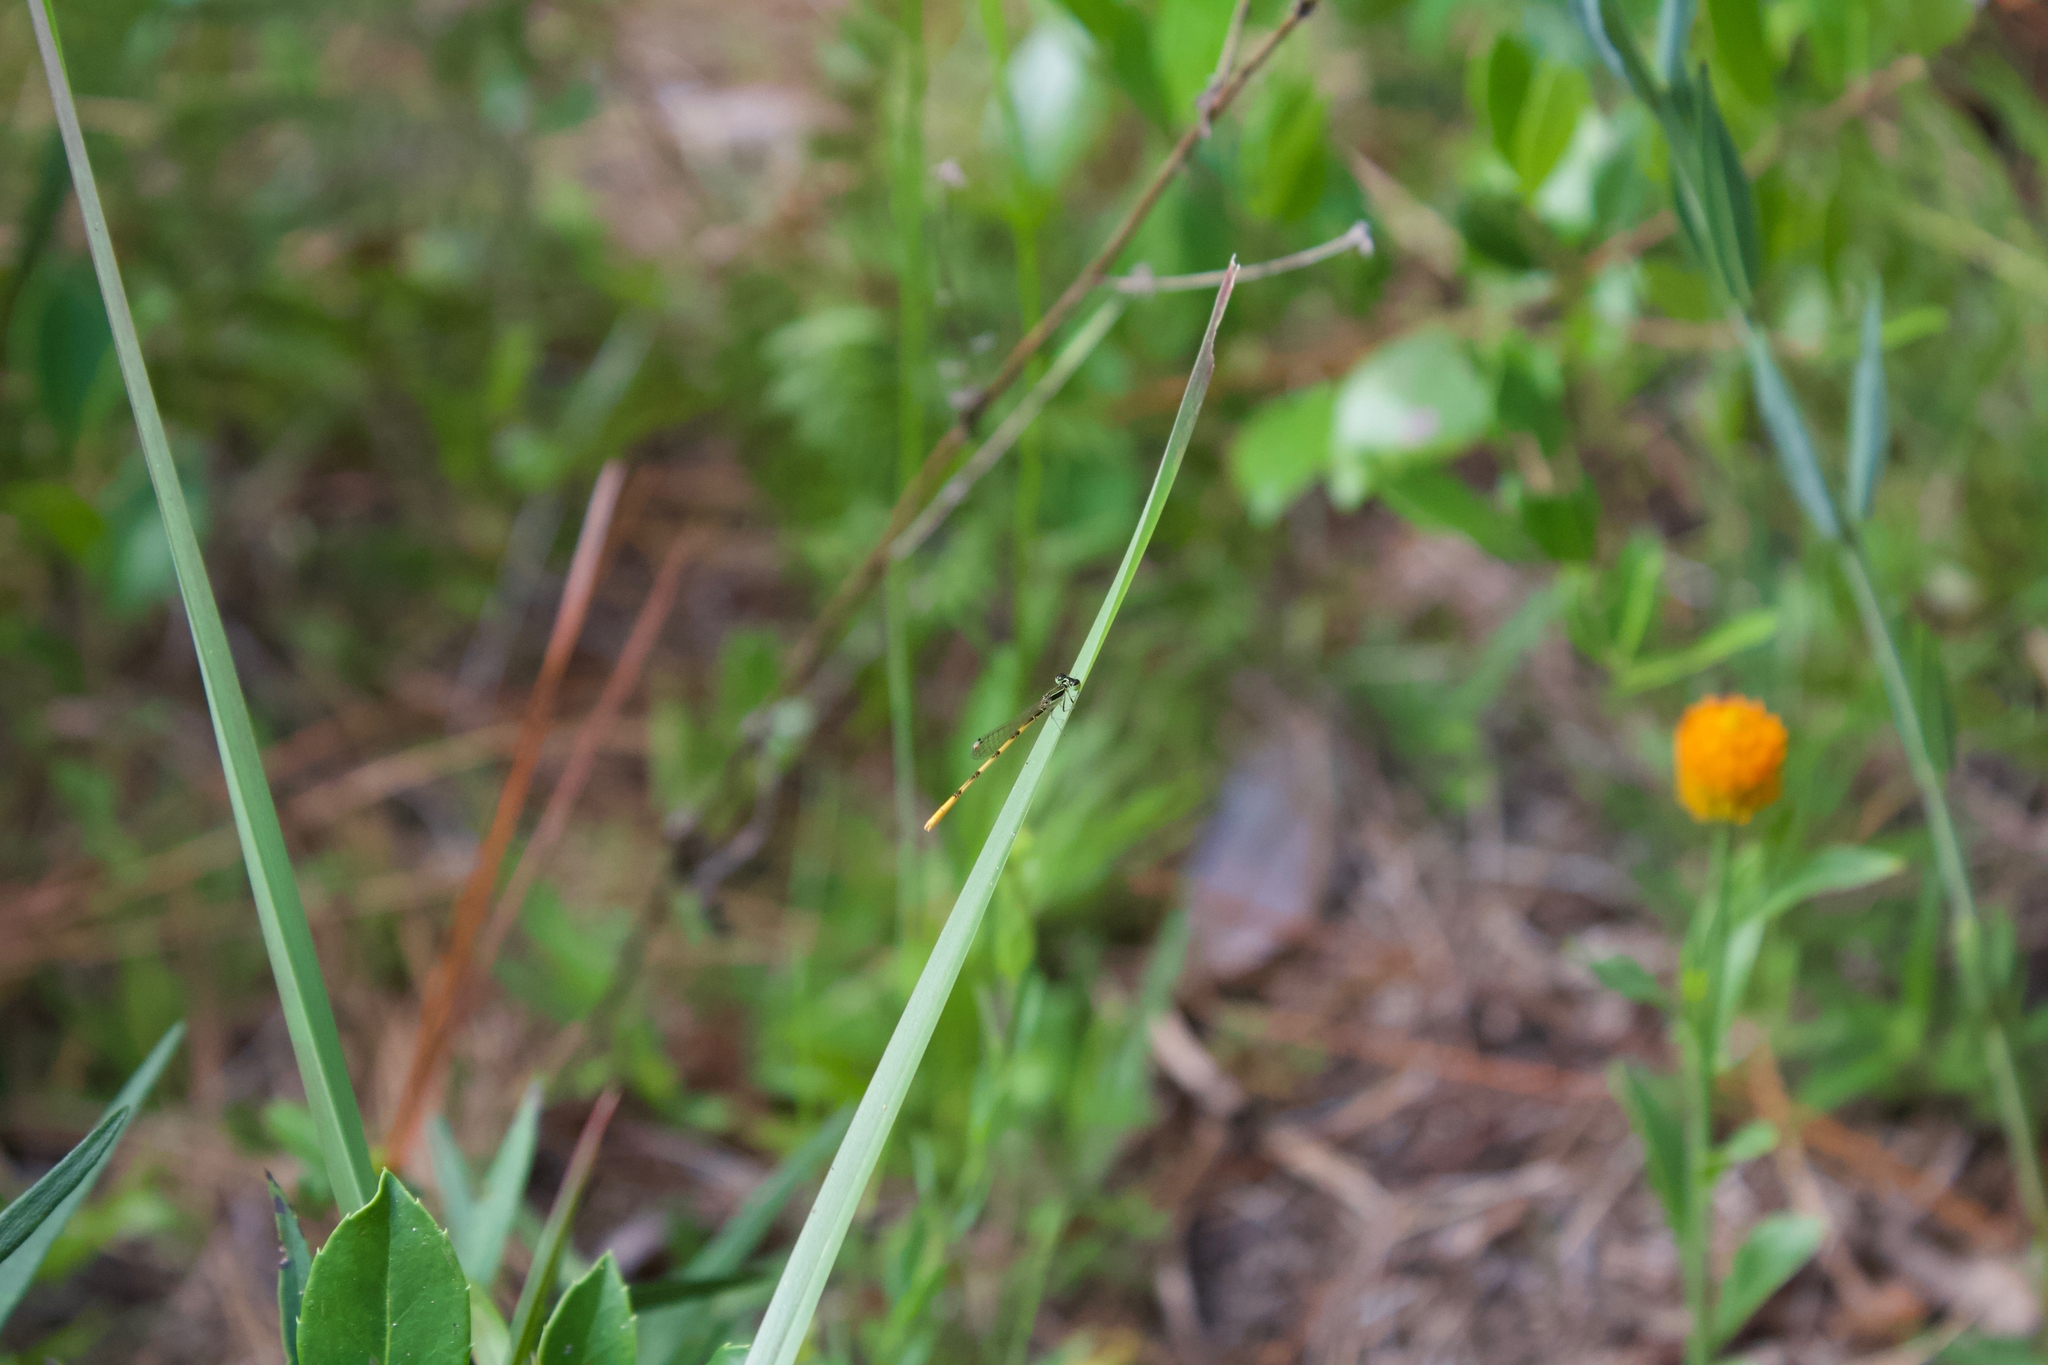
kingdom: Animalia
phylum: Arthropoda
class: Insecta
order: Odonata
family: Coenagrionidae
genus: Ischnura
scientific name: Ischnura hastata
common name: Citrine forktail
